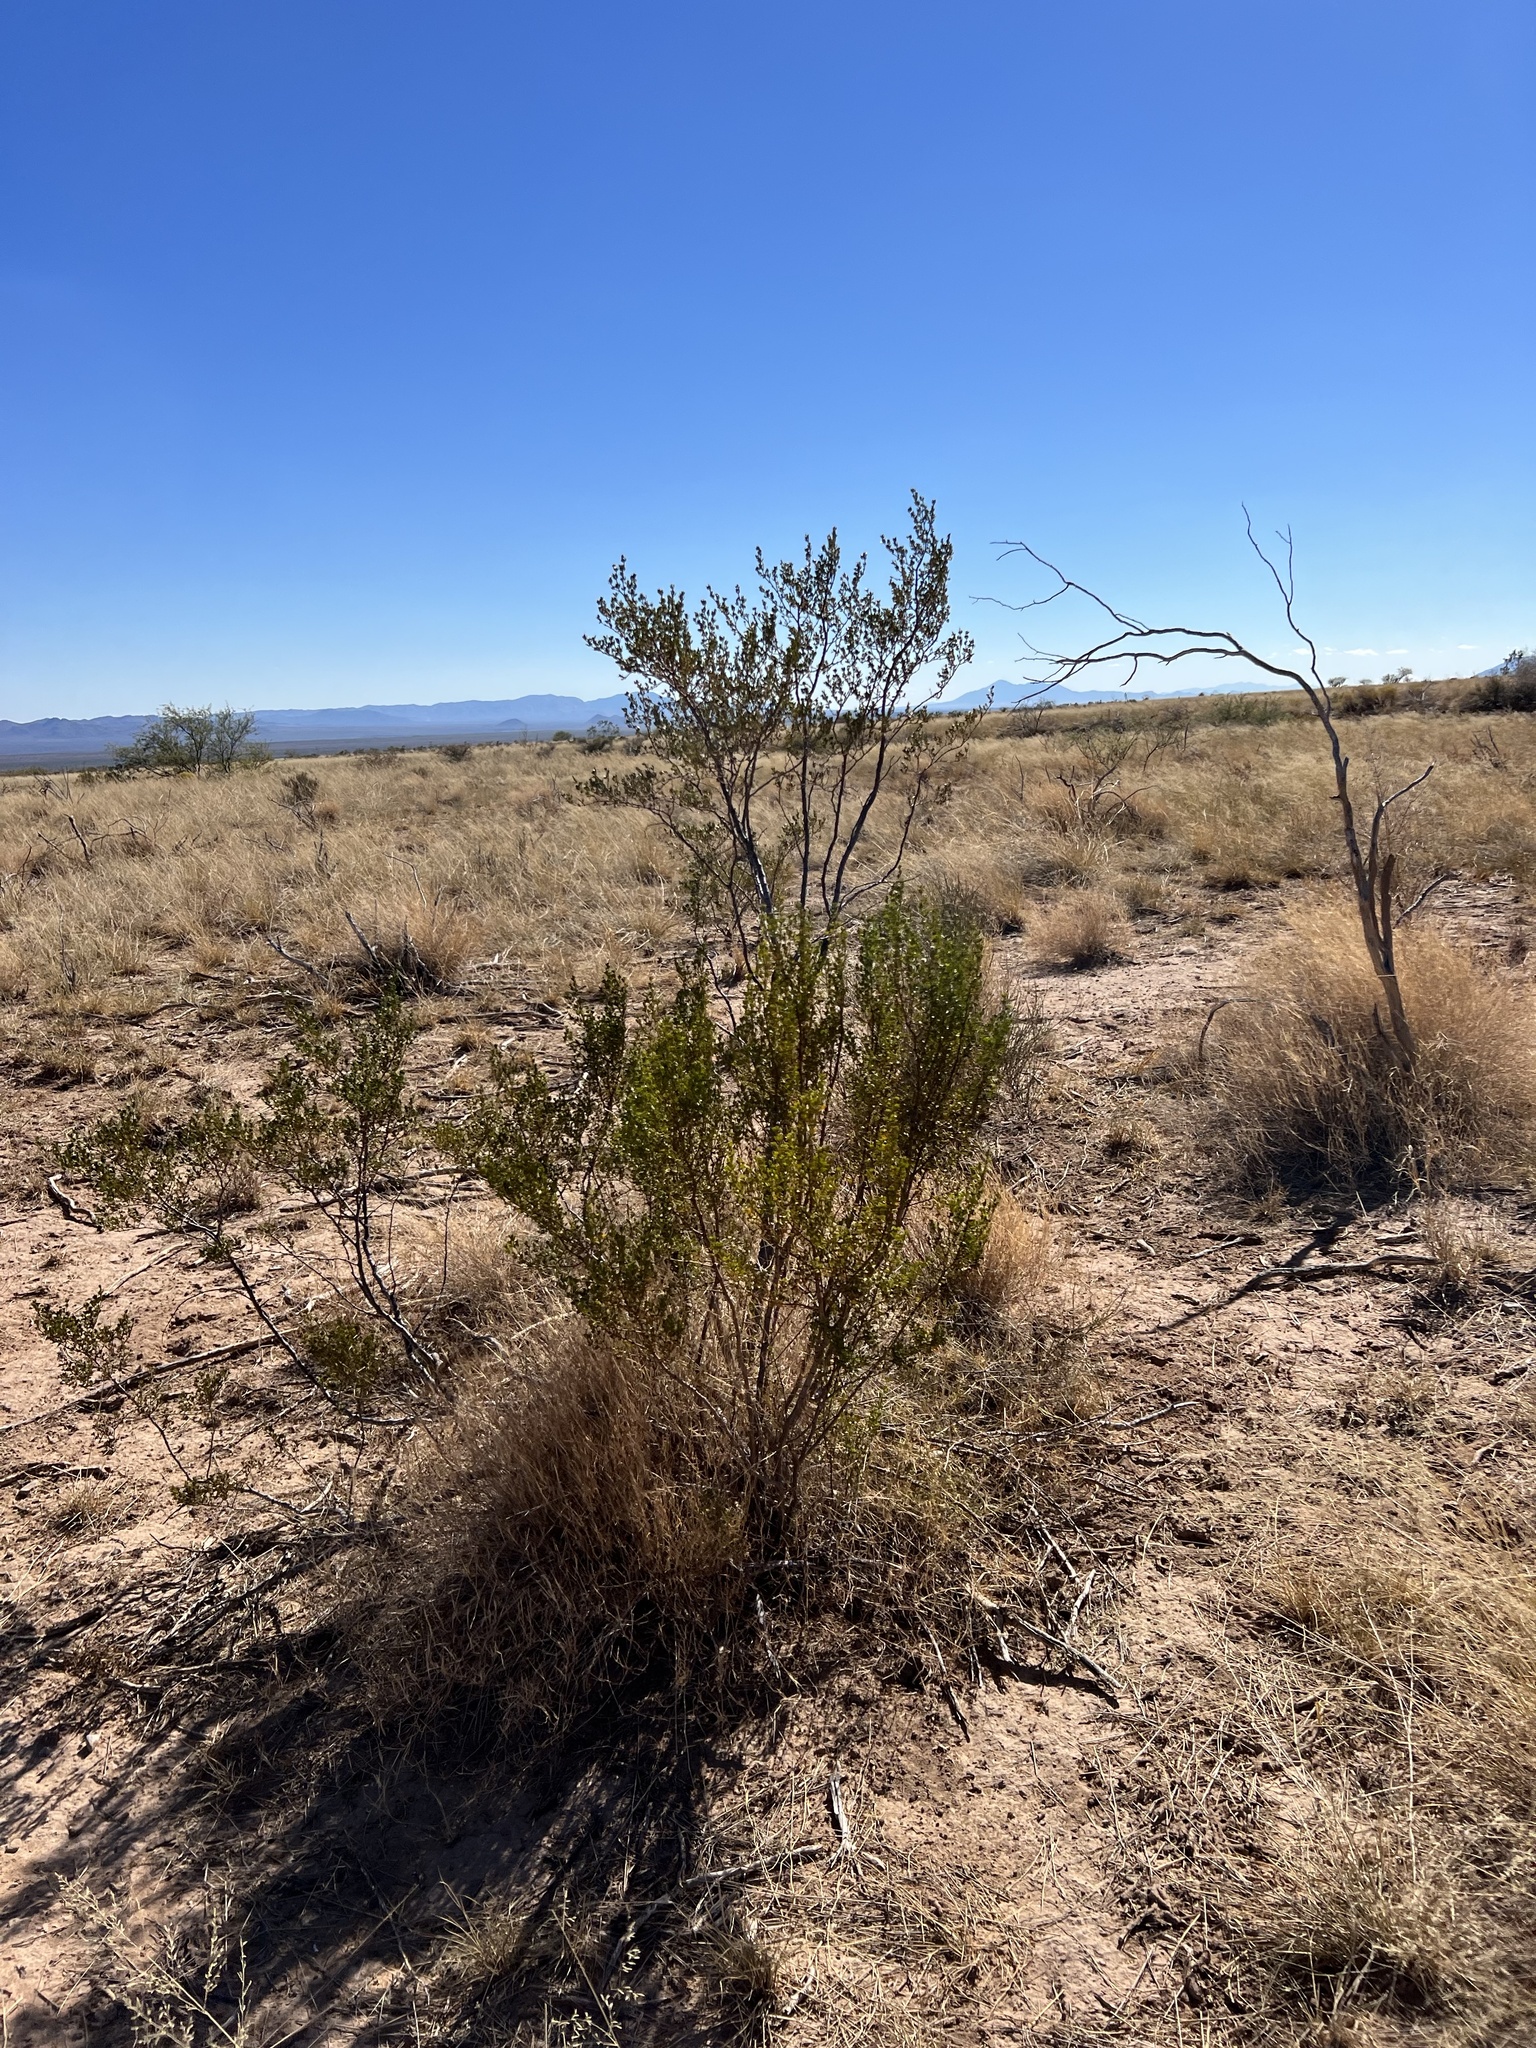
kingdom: Plantae
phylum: Tracheophyta
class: Magnoliopsida
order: Zygophyllales
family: Zygophyllaceae
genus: Larrea
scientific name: Larrea tridentata
